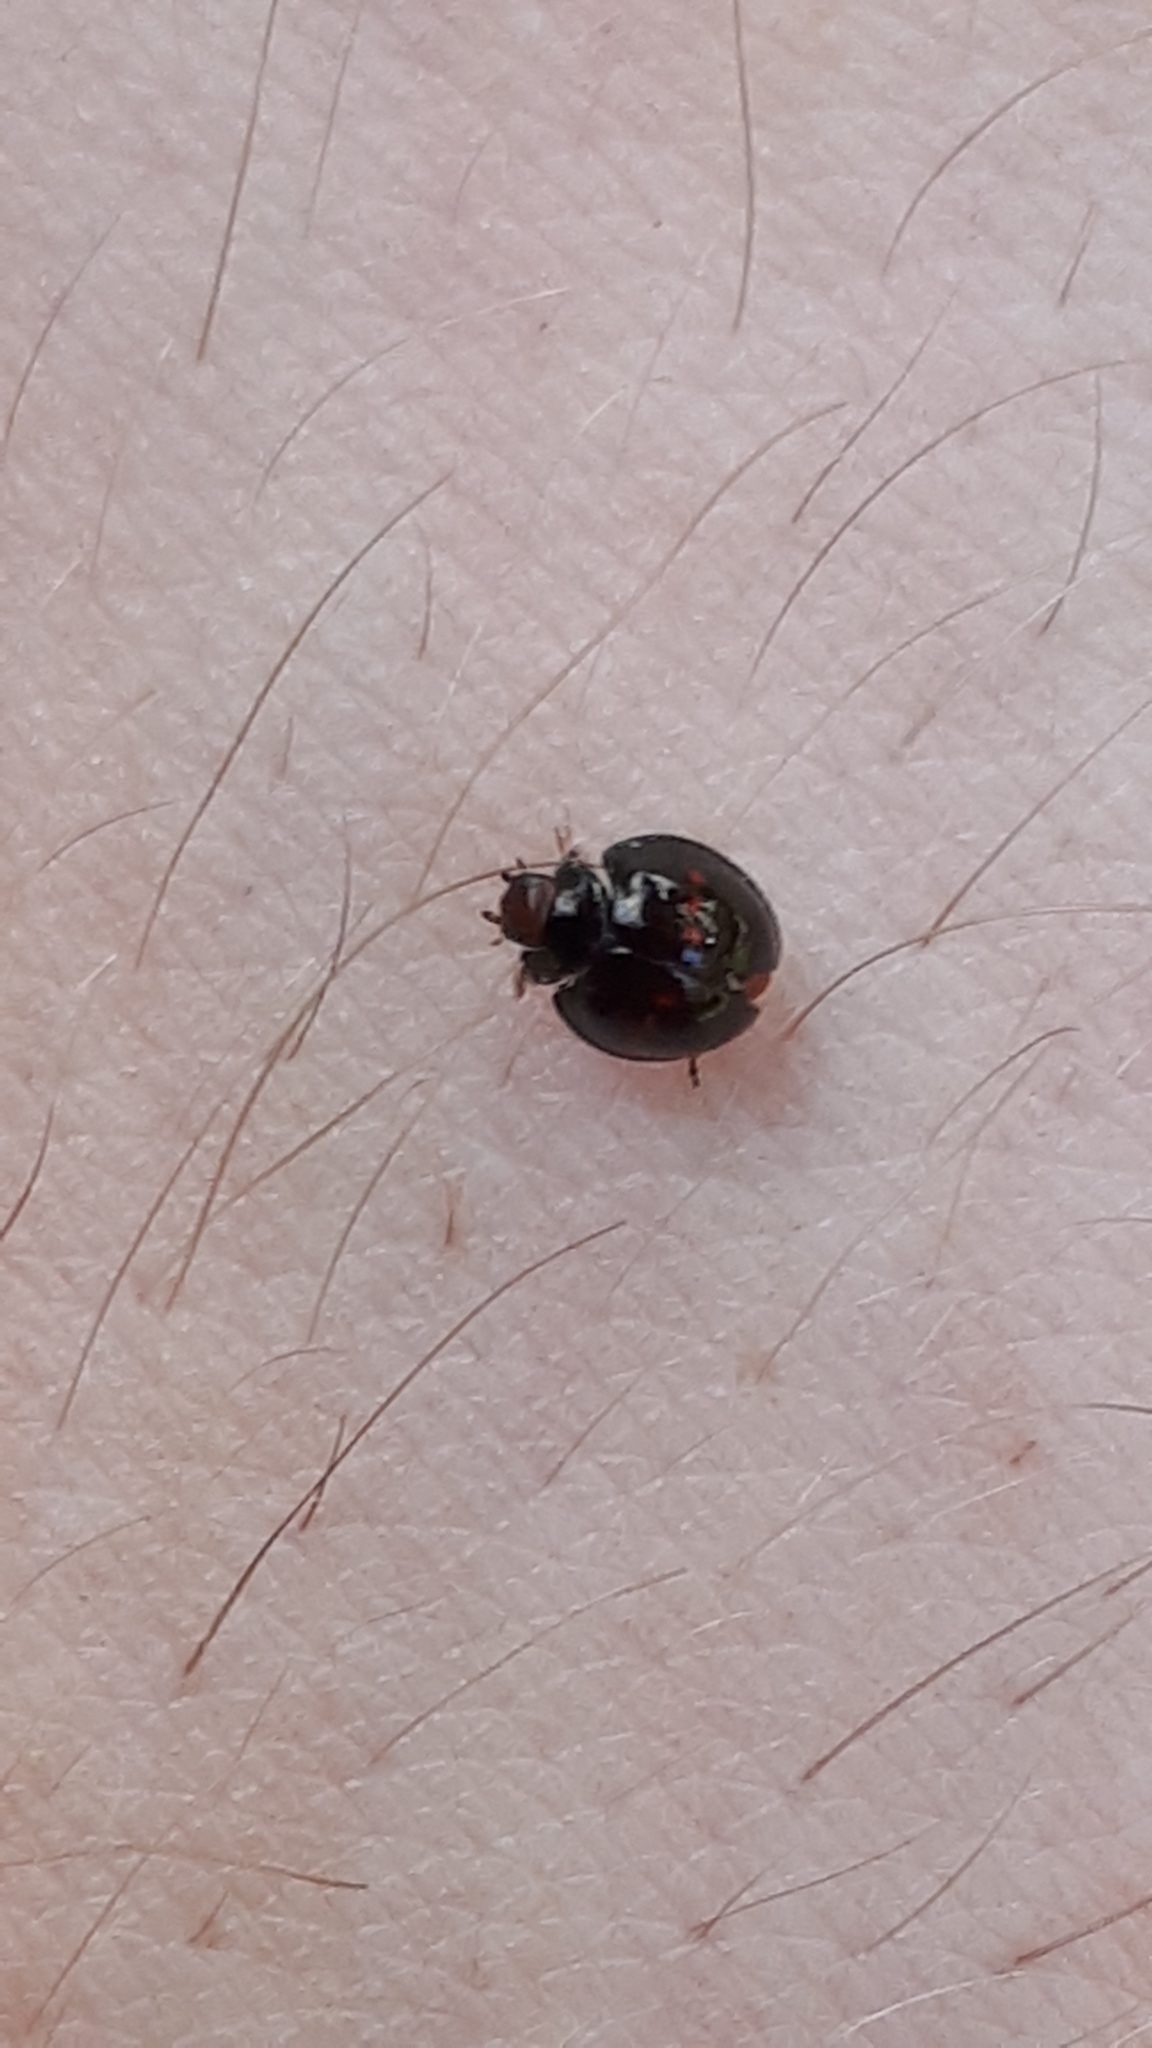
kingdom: Animalia
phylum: Arthropoda
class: Insecta
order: Coleoptera
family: Coccinellidae
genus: Chilocorus
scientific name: Chilocorus bipustulatus
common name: Heather ladybird
